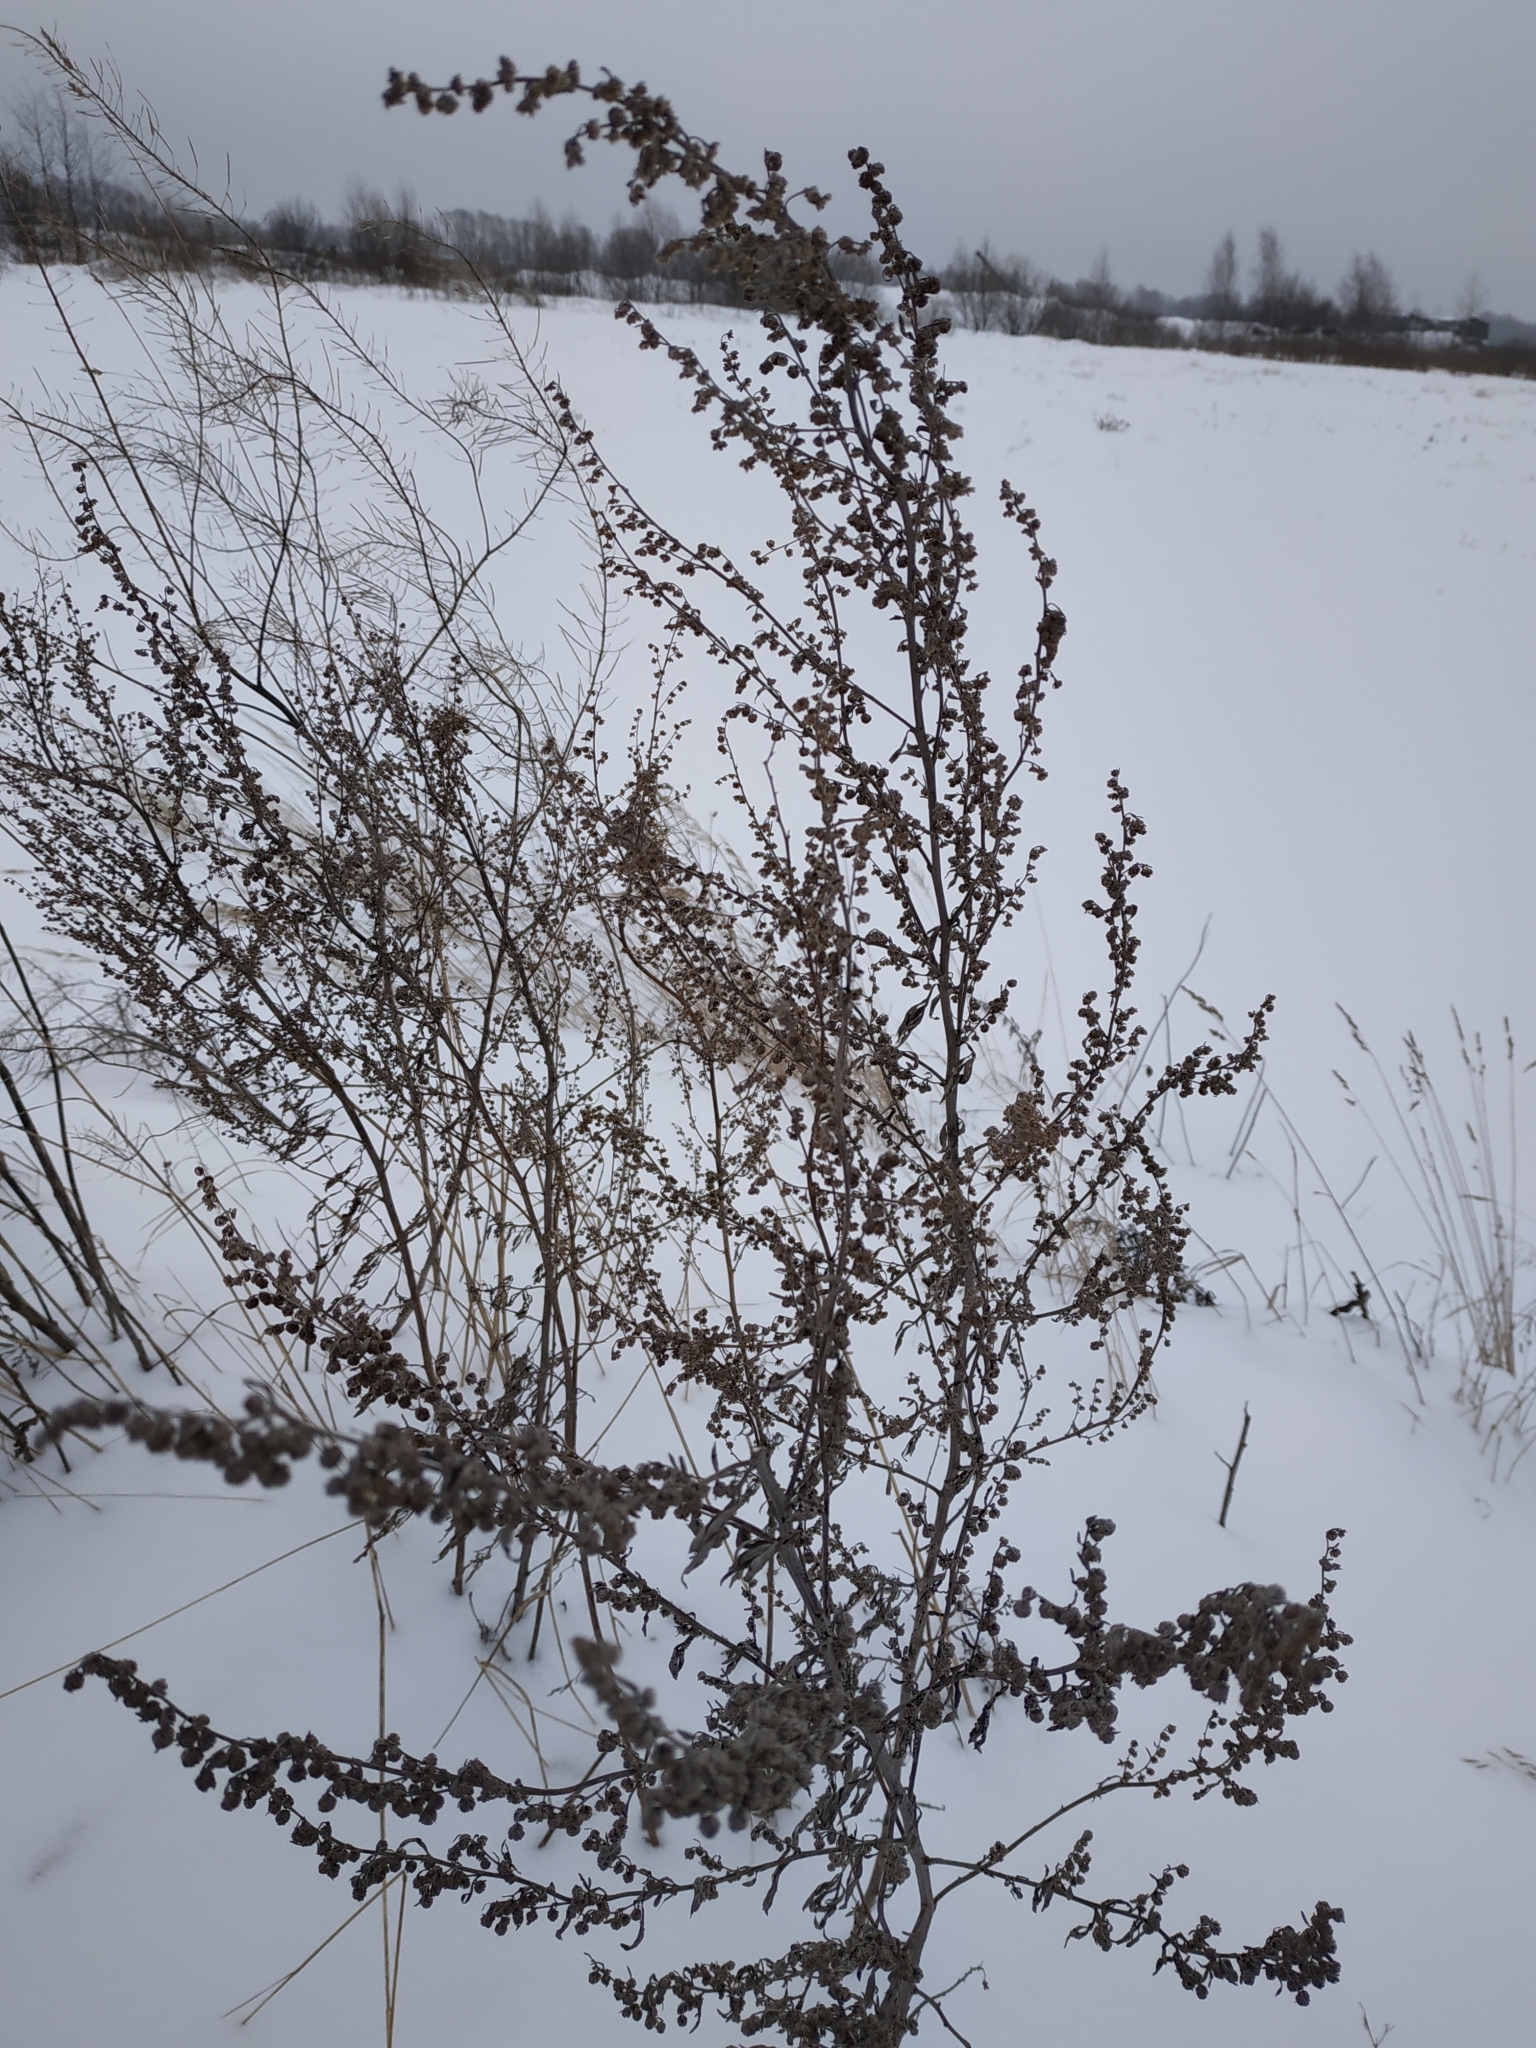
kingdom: Plantae
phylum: Tracheophyta
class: Magnoliopsida
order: Asterales
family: Asteraceae
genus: Artemisia
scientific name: Artemisia absinthium
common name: Wormwood
